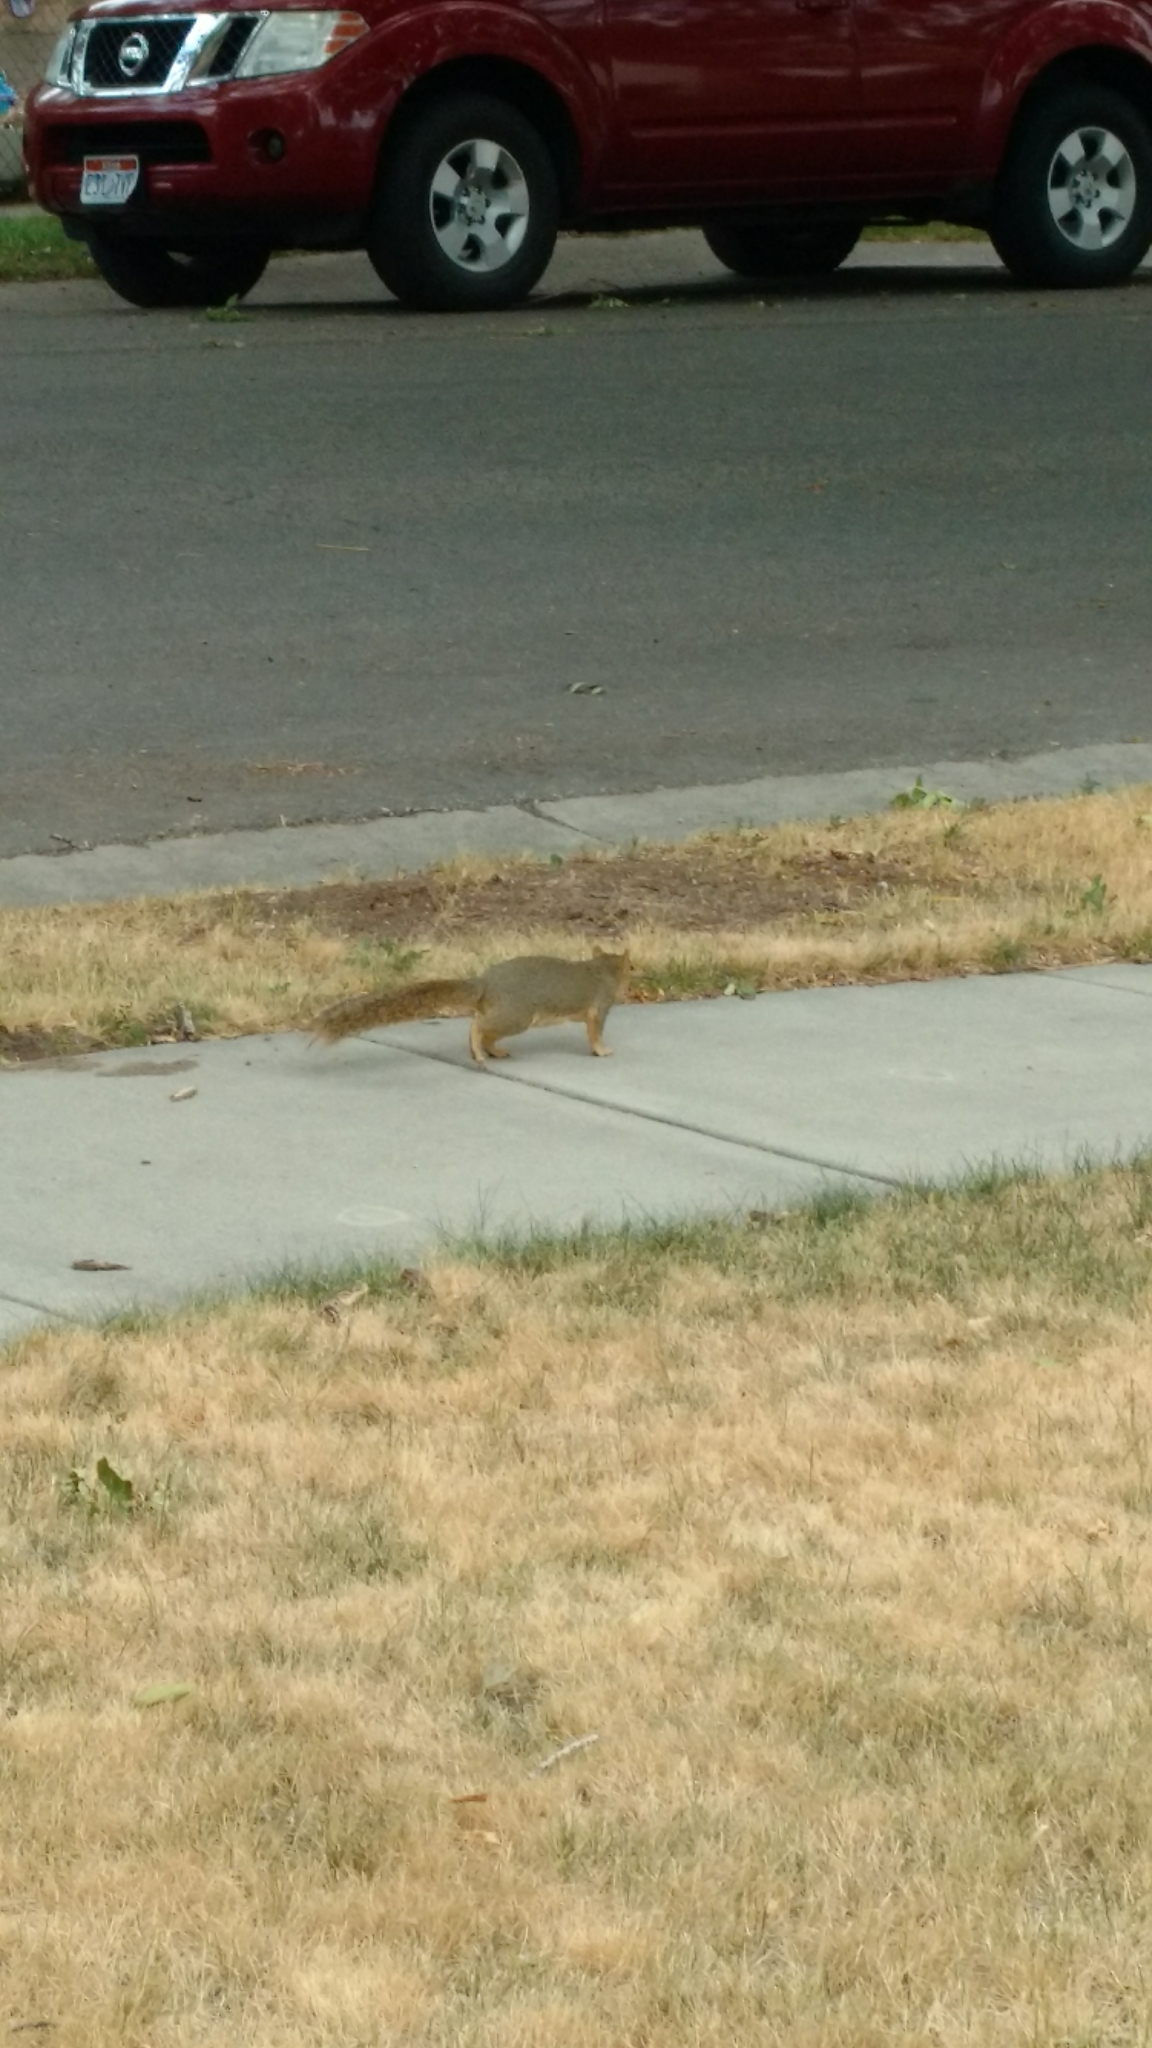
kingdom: Animalia
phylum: Chordata
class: Mammalia
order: Rodentia
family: Sciuridae
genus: Sciurus
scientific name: Sciurus niger
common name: Fox squirrel
